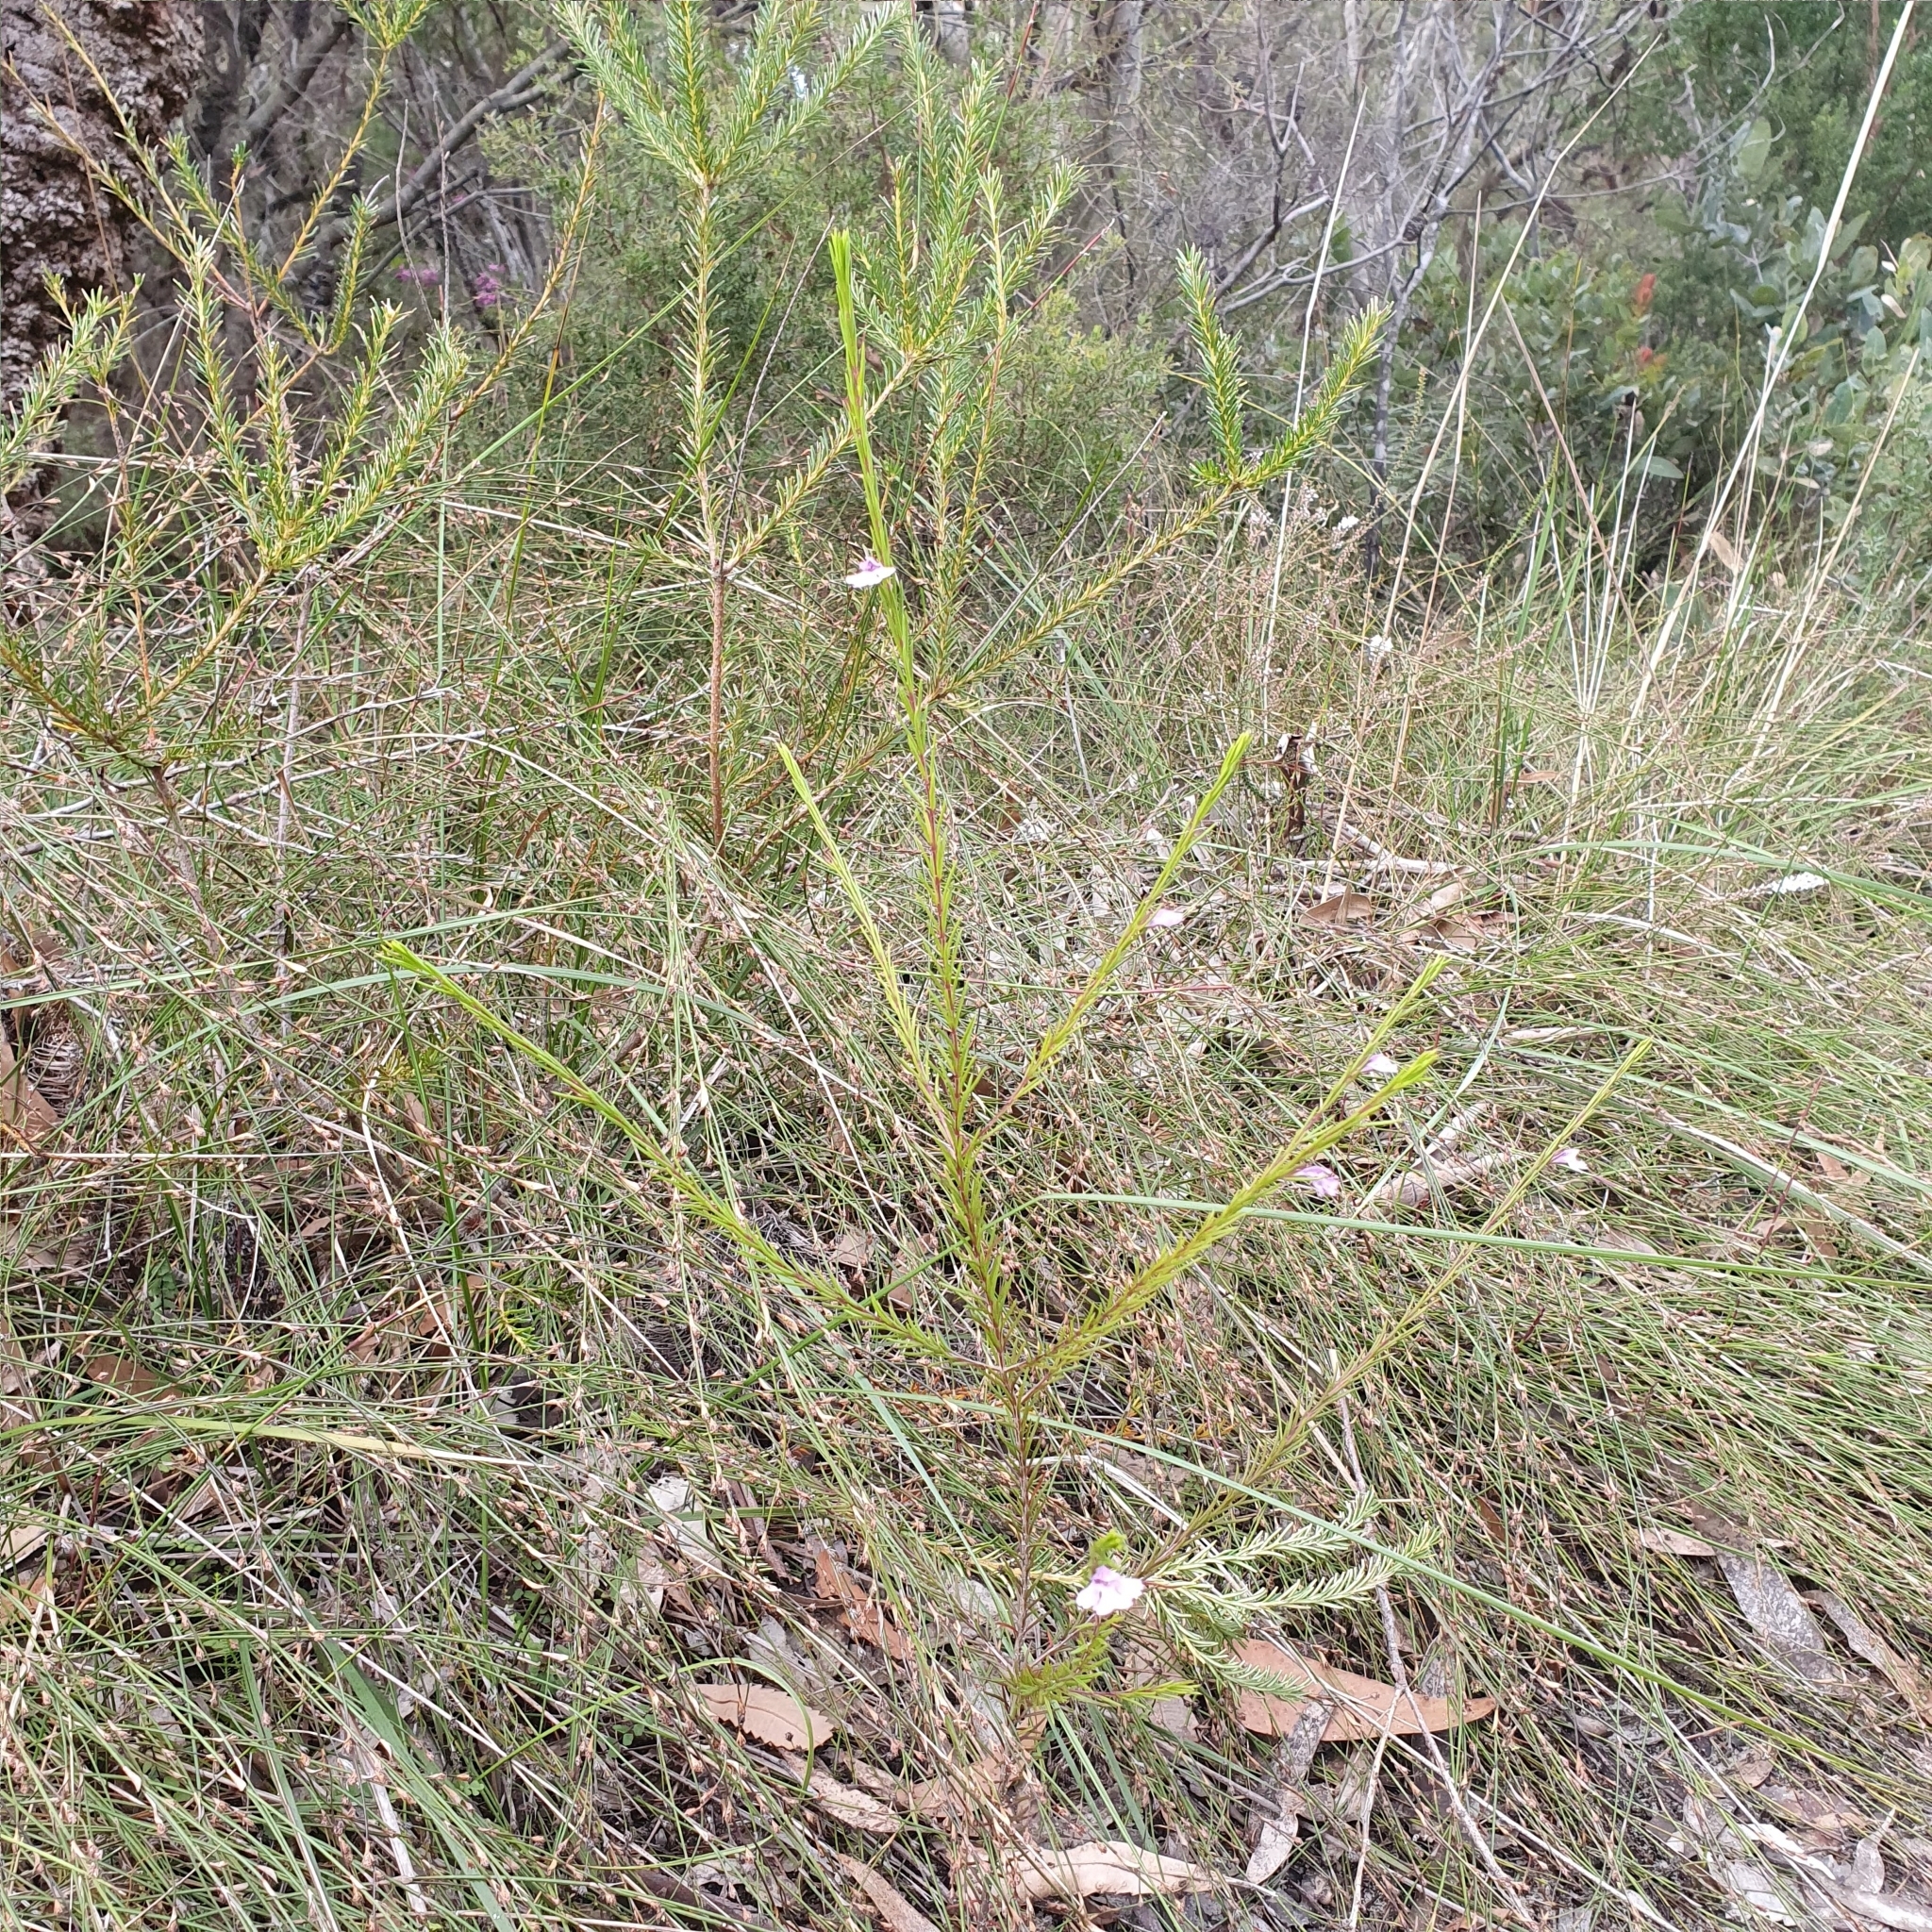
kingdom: Plantae
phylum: Tracheophyta
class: Magnoliopsida
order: Lamiales
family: Lamiaceae
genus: Hemigenia
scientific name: Hemigenia purpurea
